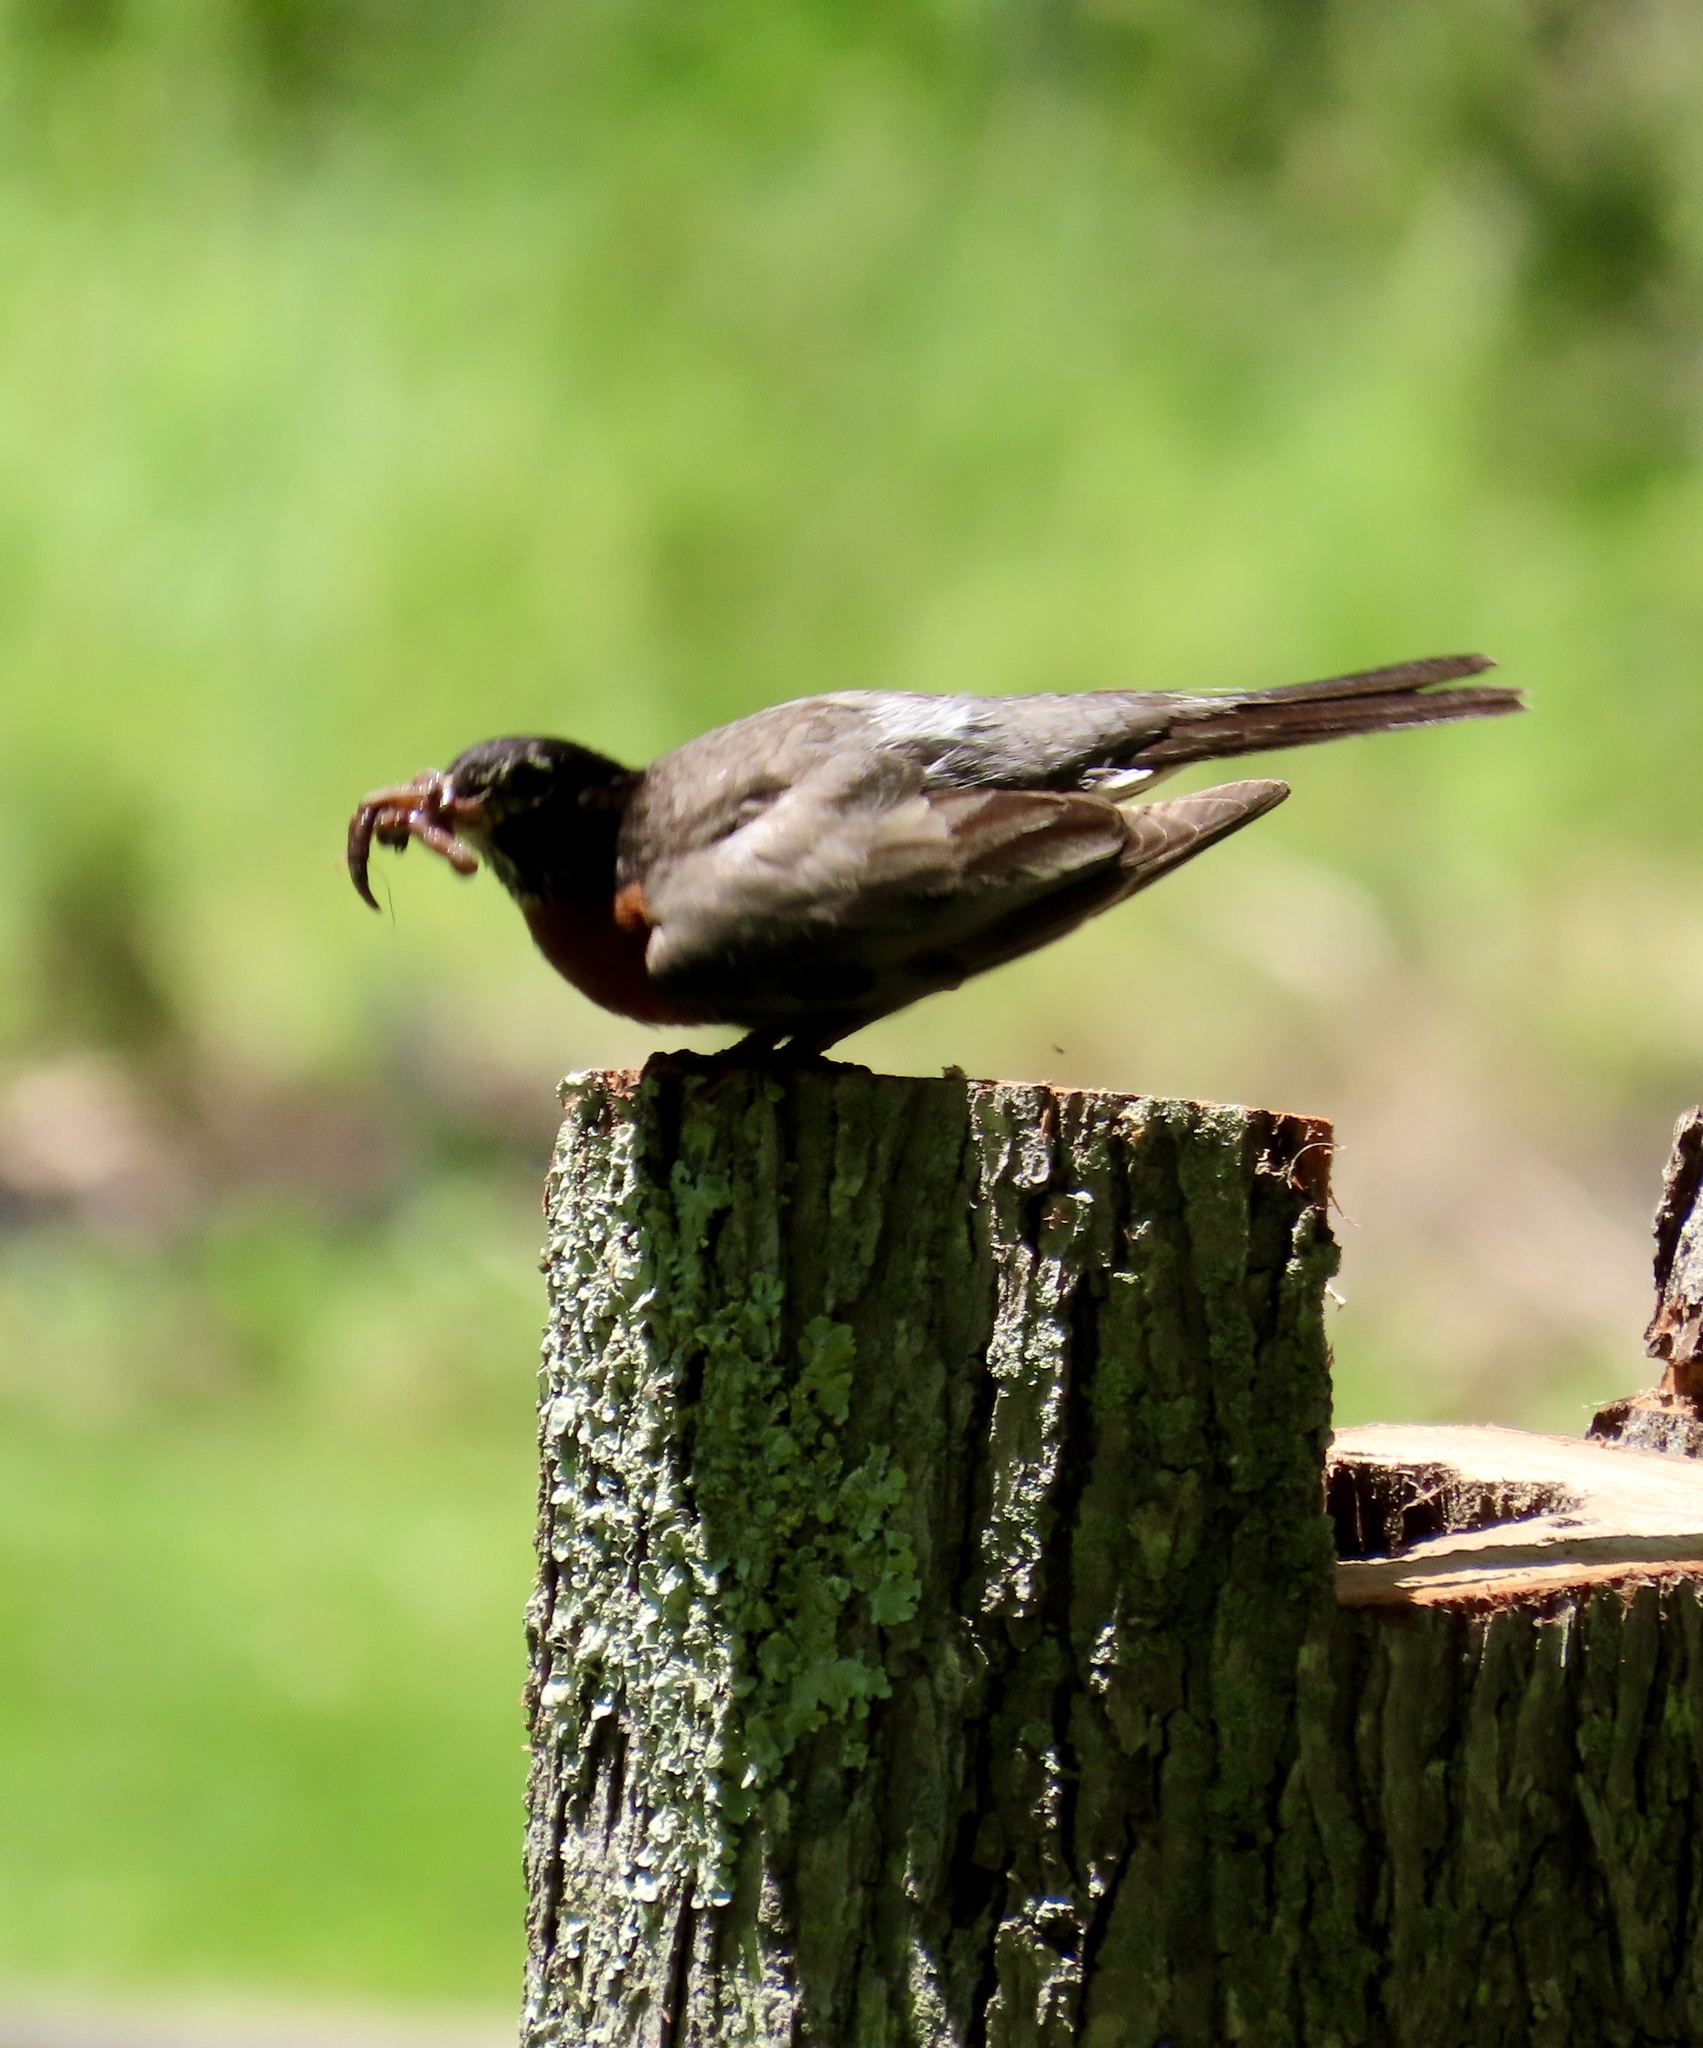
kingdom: Animalia
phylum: Chordata
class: Aves
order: Passeriformes
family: Turdidae
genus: Turdus
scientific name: Turdus migratorius
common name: American robin
